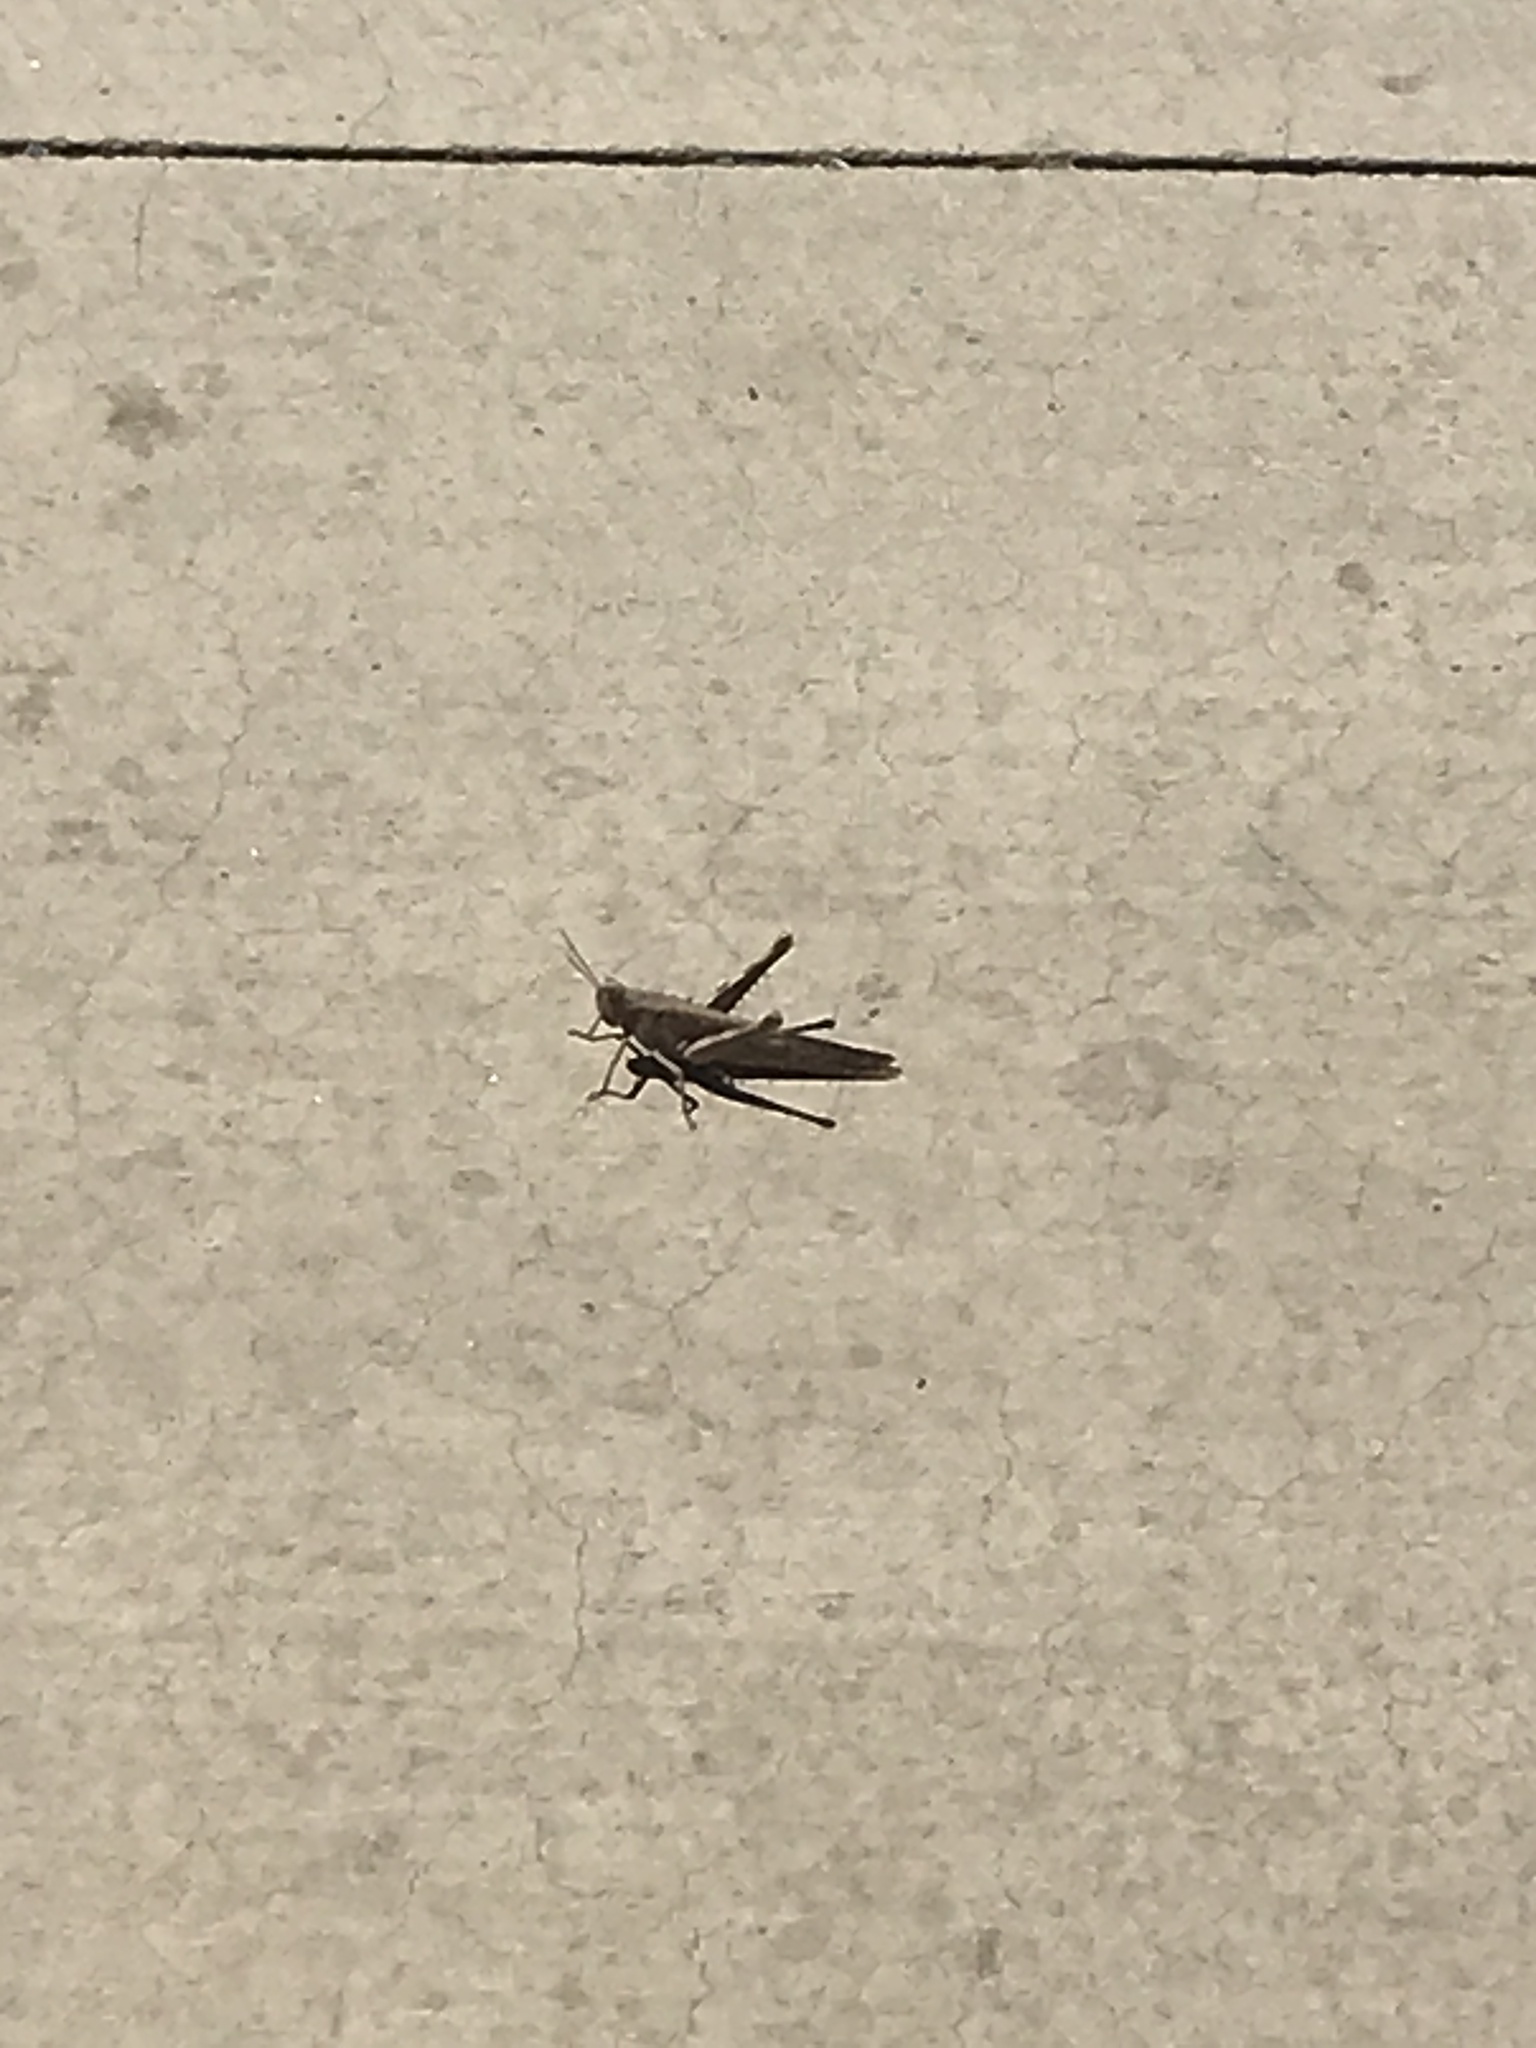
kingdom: Animalia
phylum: Arthropoda
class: Insecta
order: Orthoptera
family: Acrididae
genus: Schistocerca
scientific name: Schistocerca nitens
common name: Vagrant grasshopper
